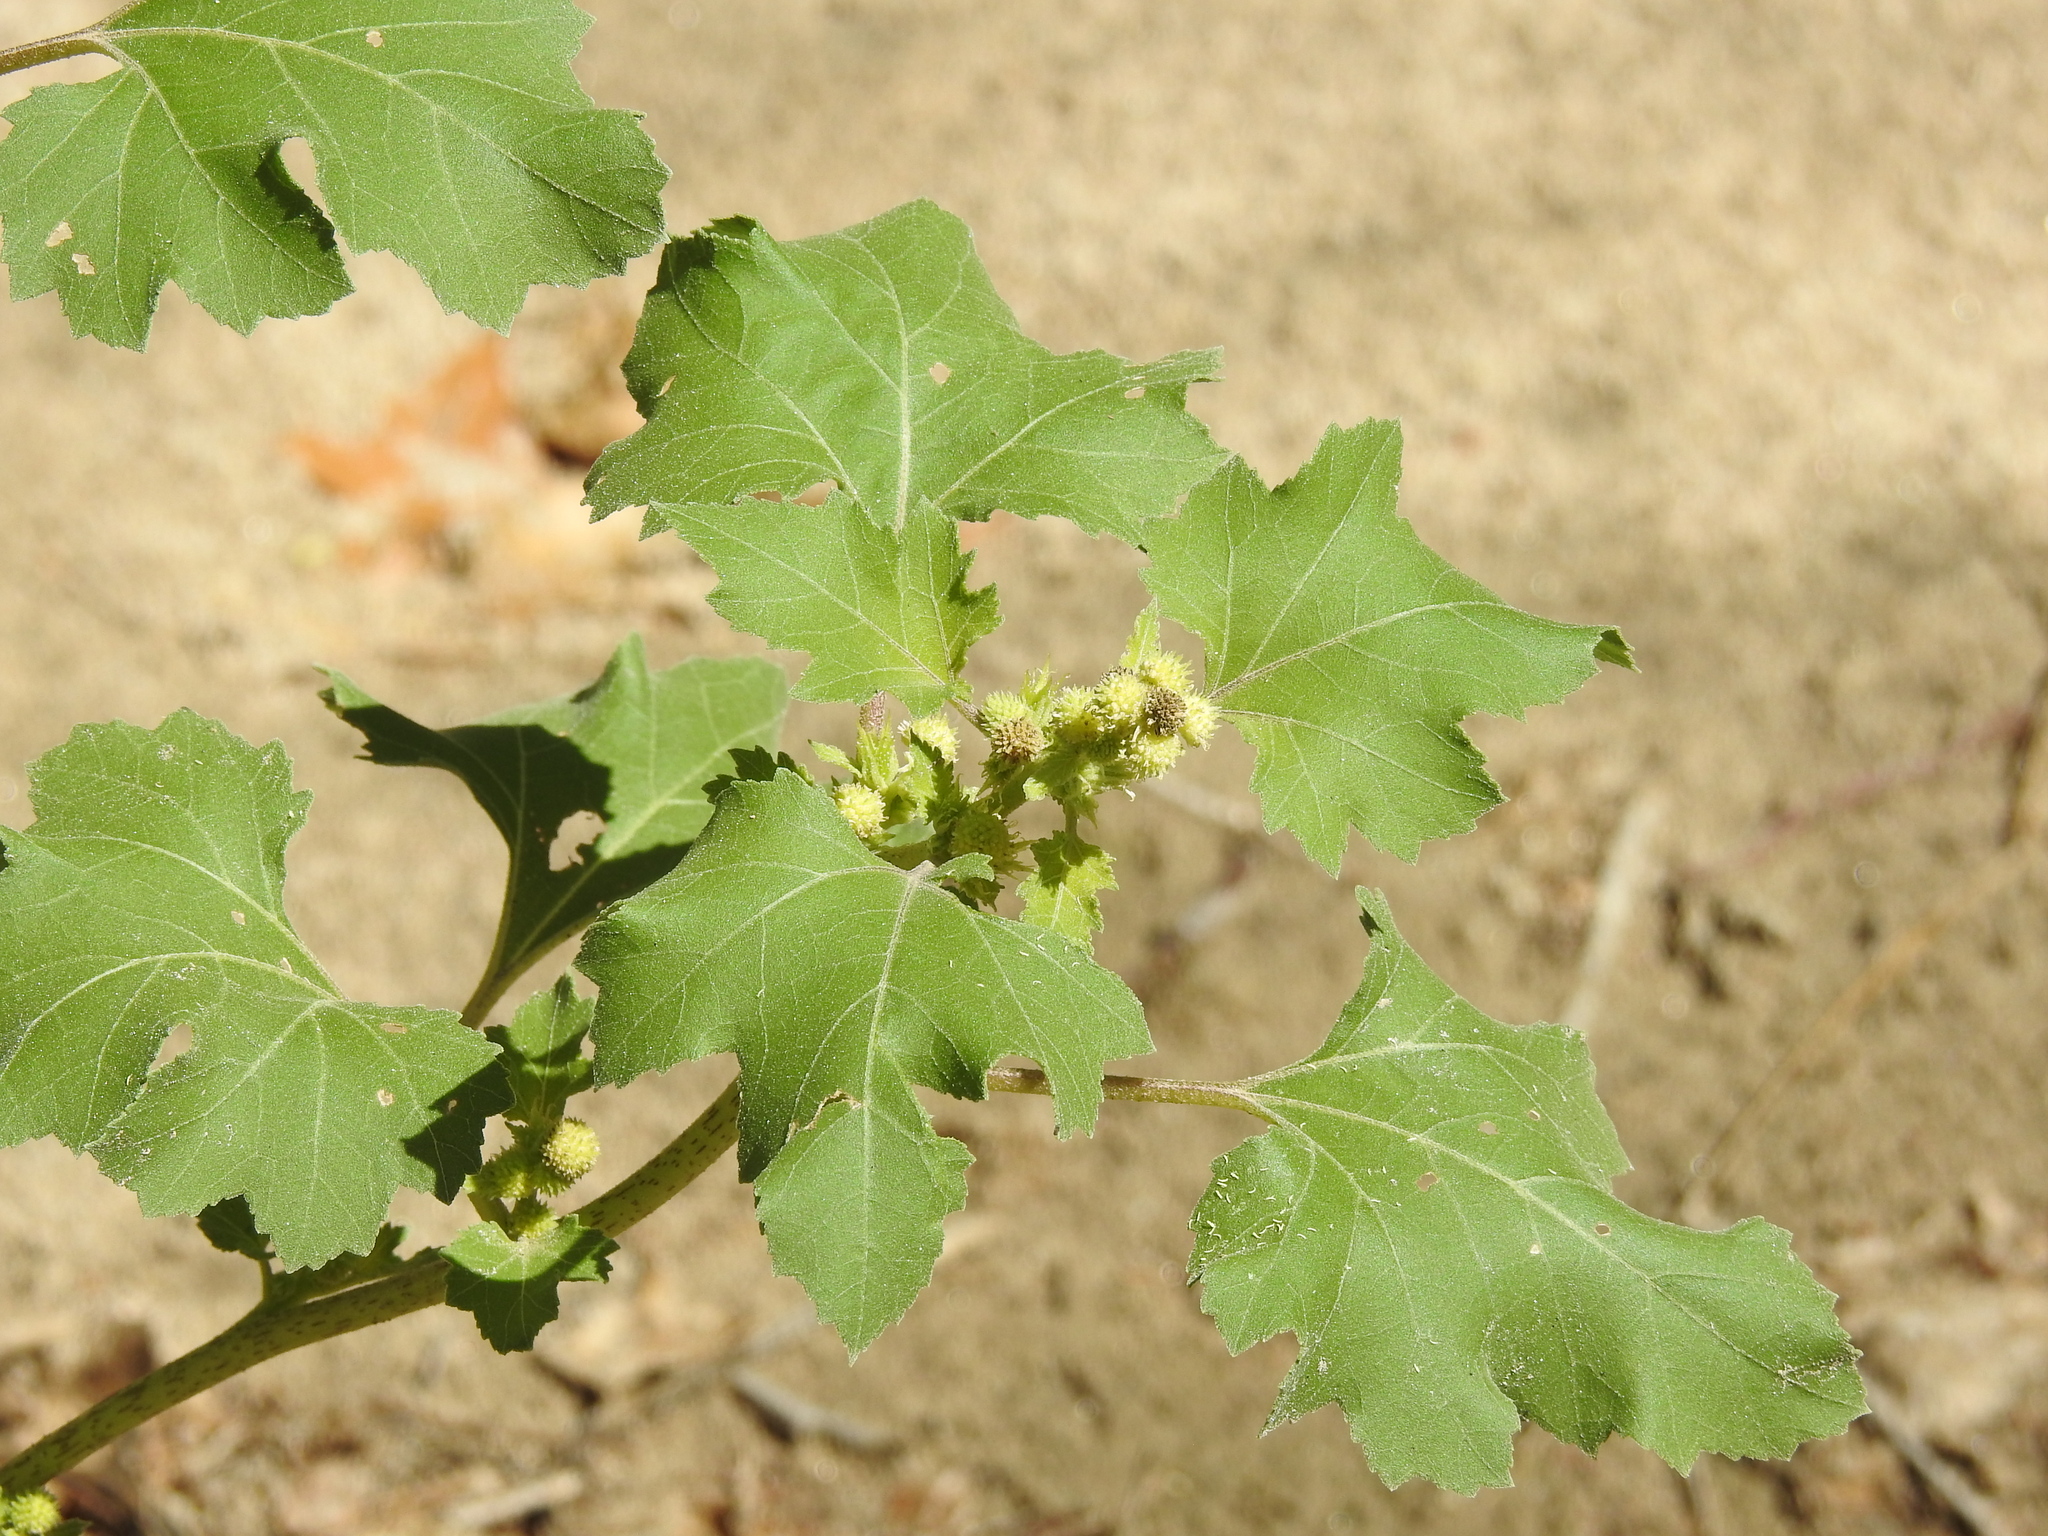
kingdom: Plantae
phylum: Tracheophyta
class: Magnoliopsida
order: Asterales
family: Asteraceae
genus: Xanthium
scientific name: Xanthium strumarium
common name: Rough cocklebur
